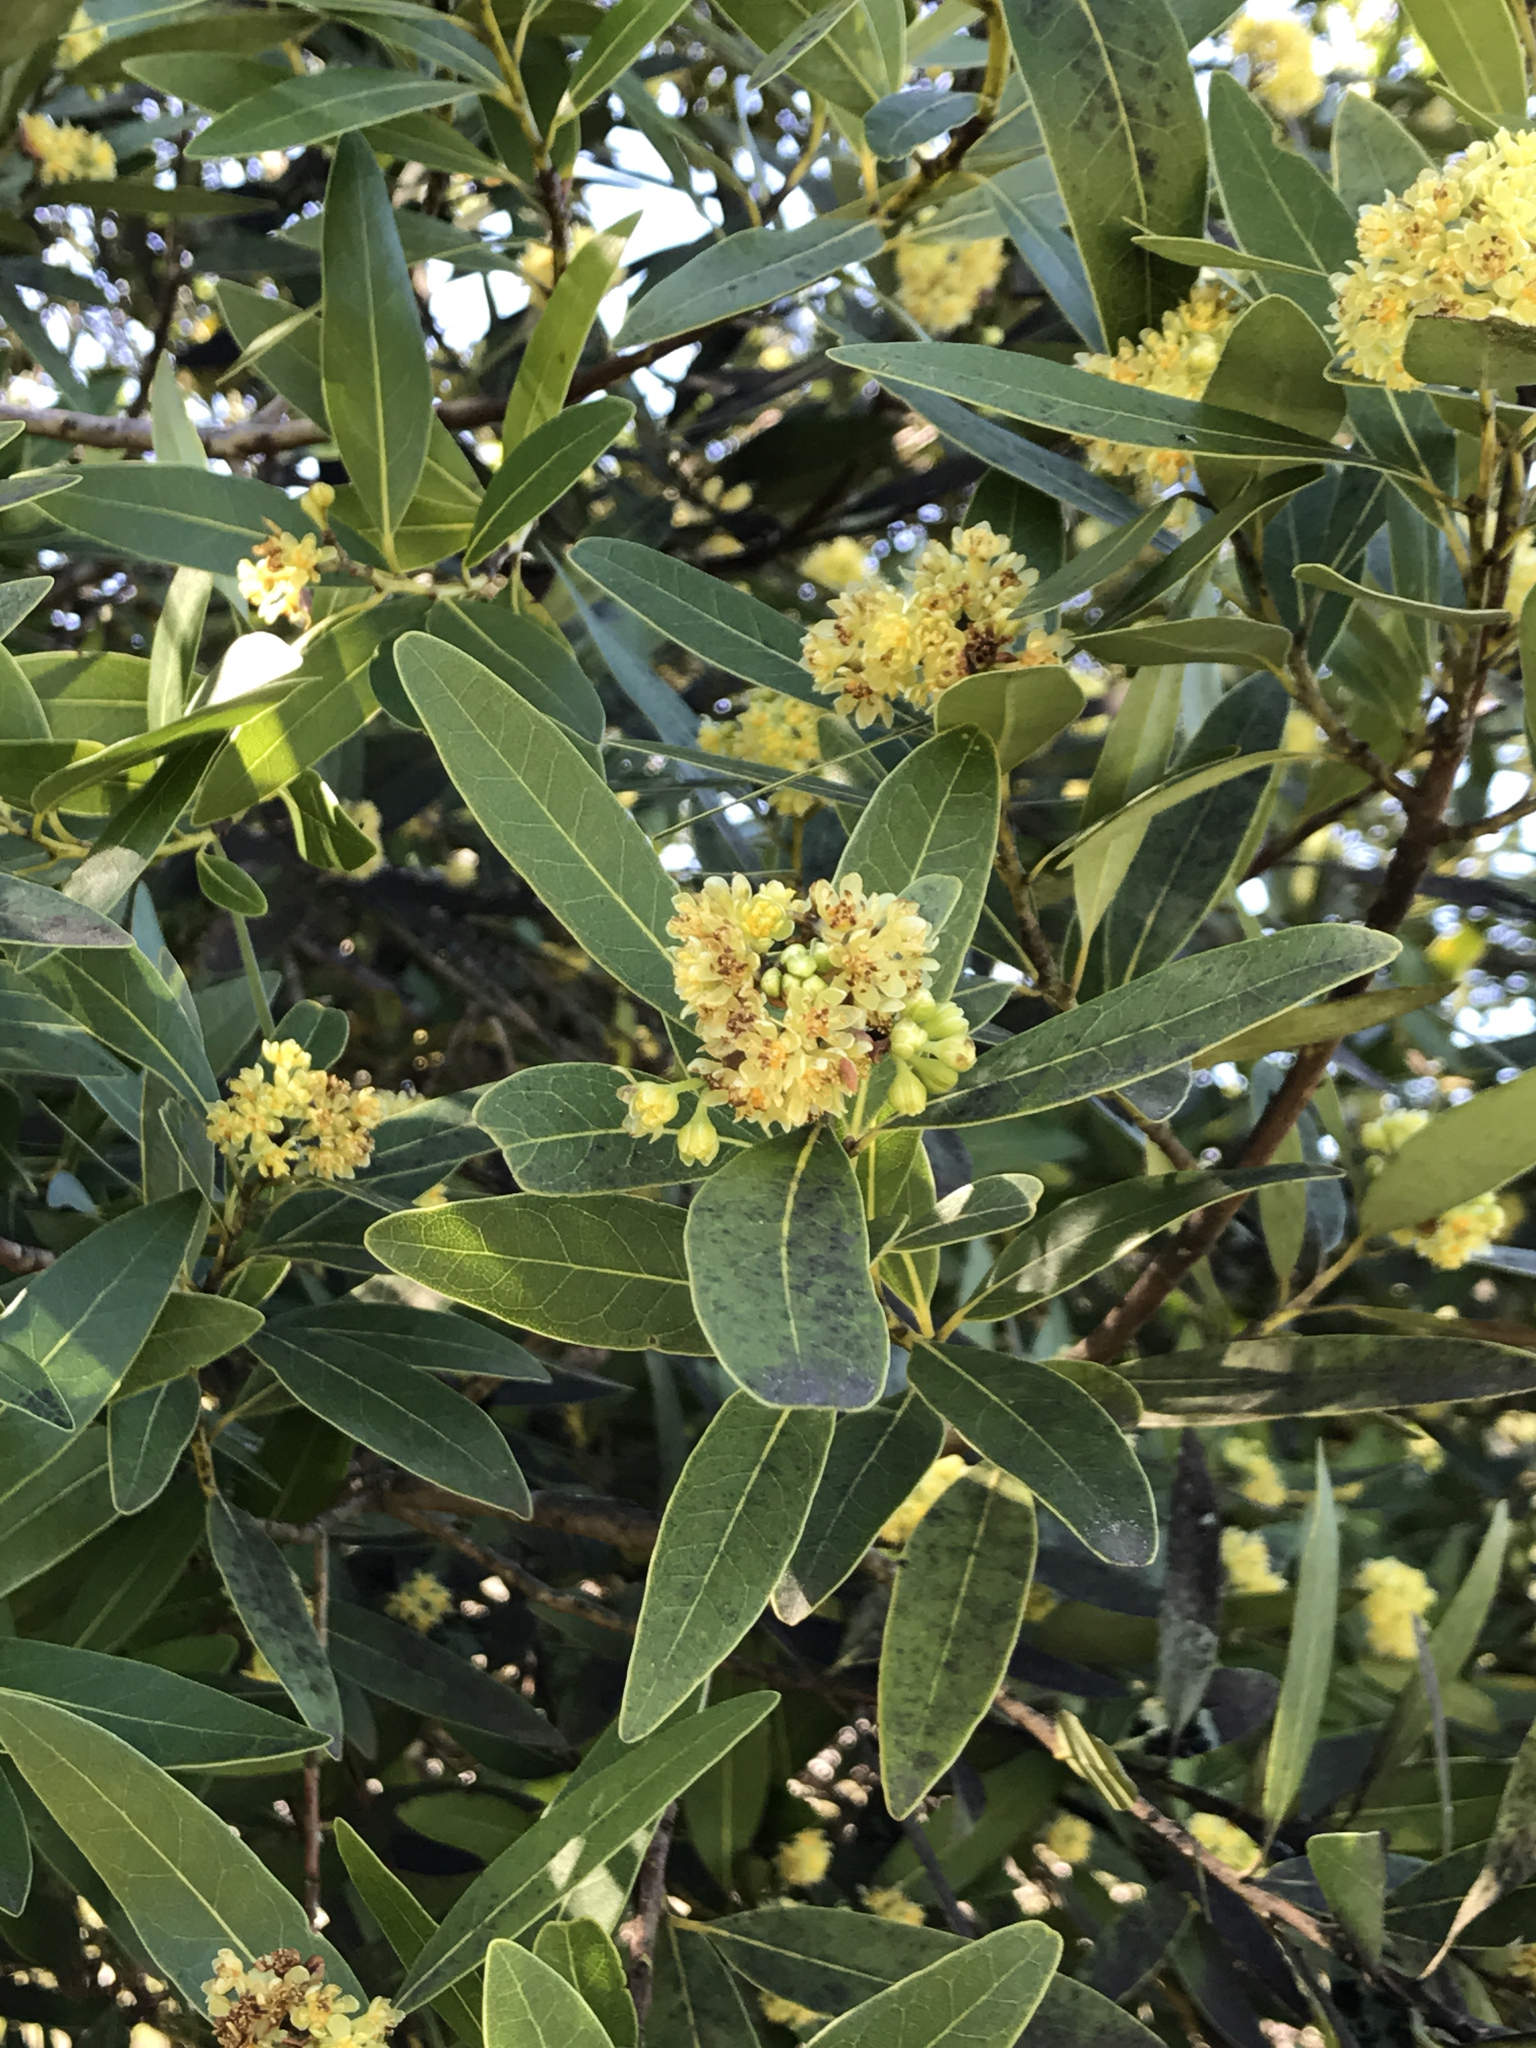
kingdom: Plantae
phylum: Tracheophyta
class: Magnoliopsida
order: Laurales
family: Lauraceae
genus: Umbellularia
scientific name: Umbellularia californica
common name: California bay
